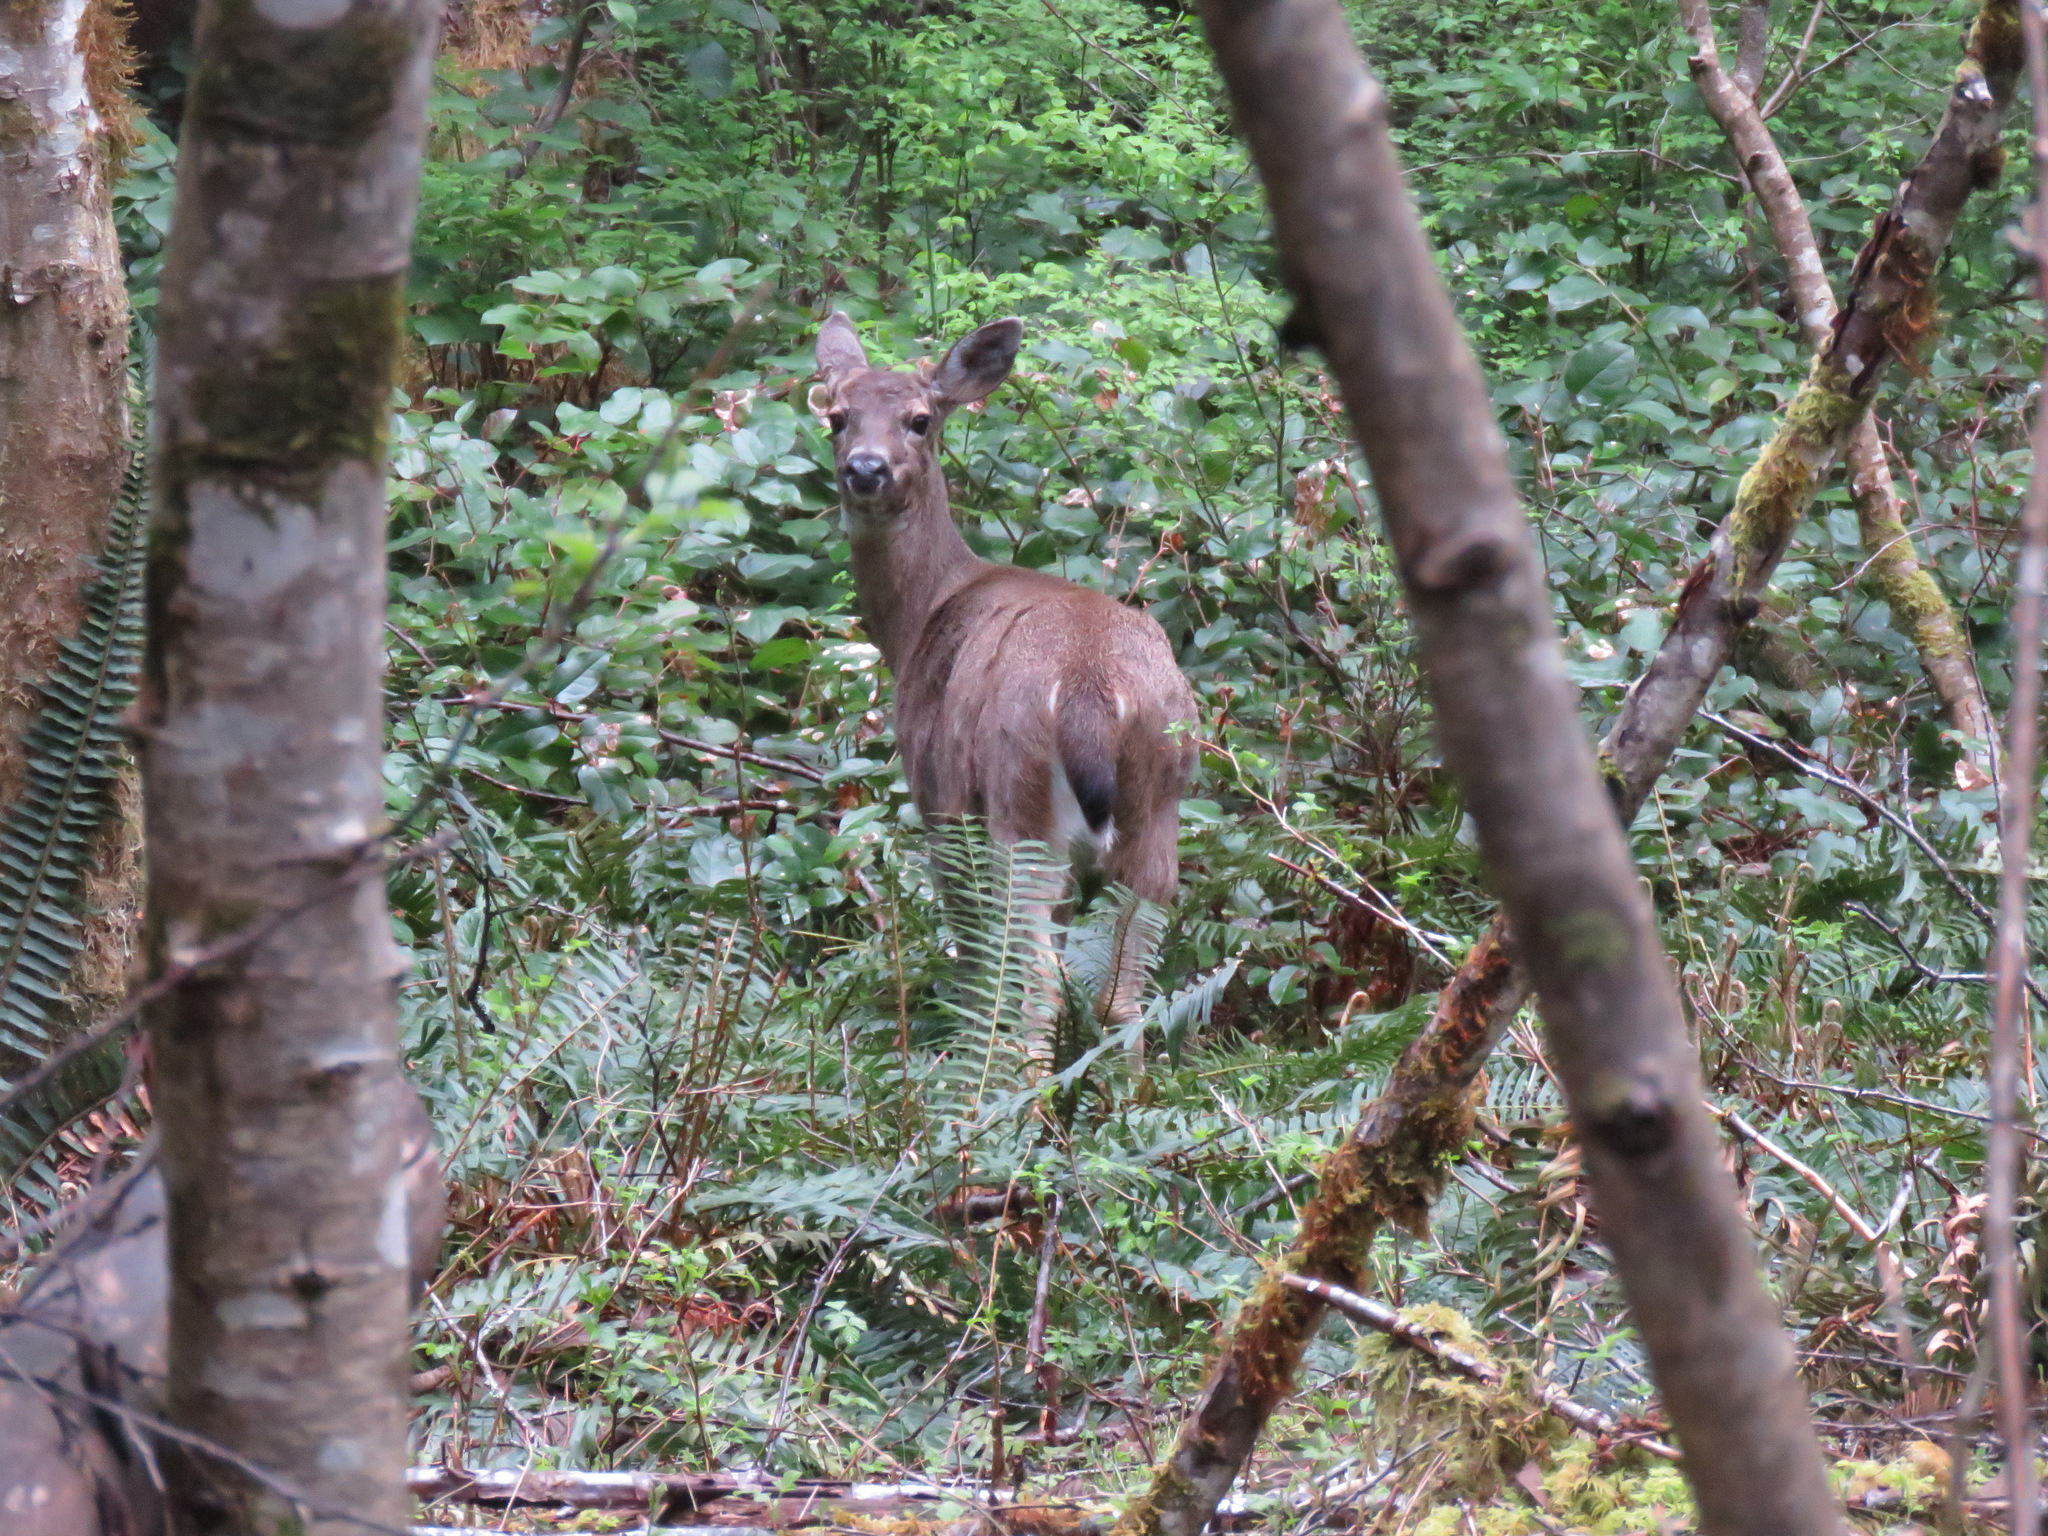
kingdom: Animalia
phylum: Chordata
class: Mammalia
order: Artiodactyla
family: Cervidae
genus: Odocoileus
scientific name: Odocoileus hemionus
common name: Mule deer
